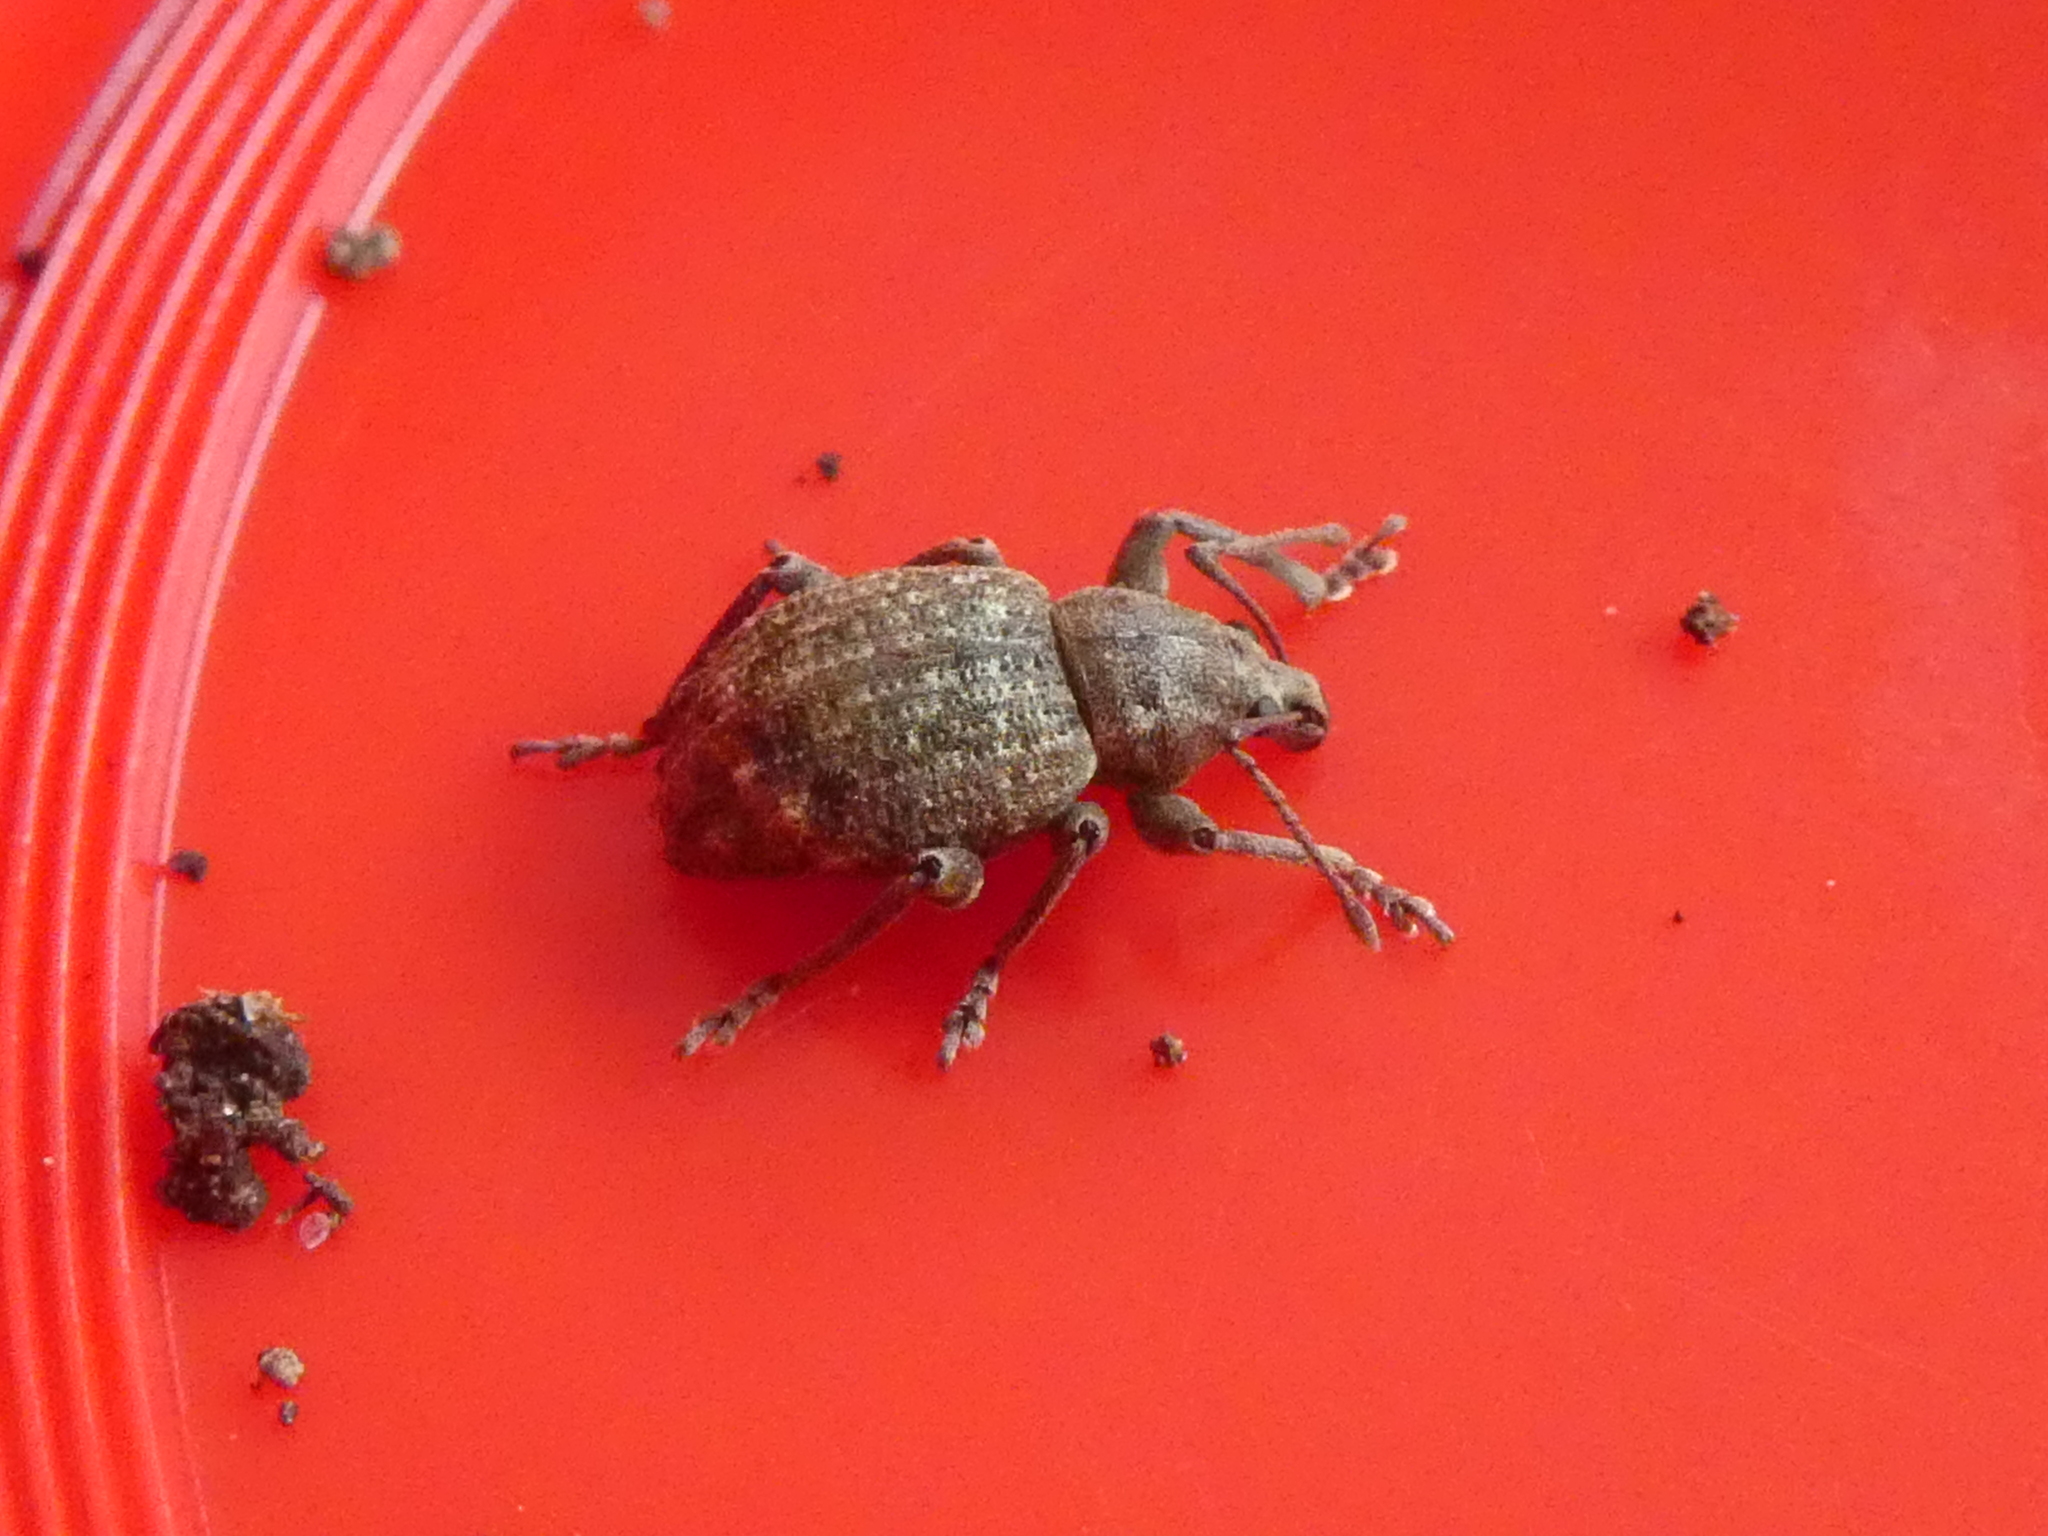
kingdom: Animalia
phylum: Arthropoda
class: Insecta
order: Coleoptera
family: Curculionidae
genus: Phlyctinus
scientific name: Phlyctinus callosus
